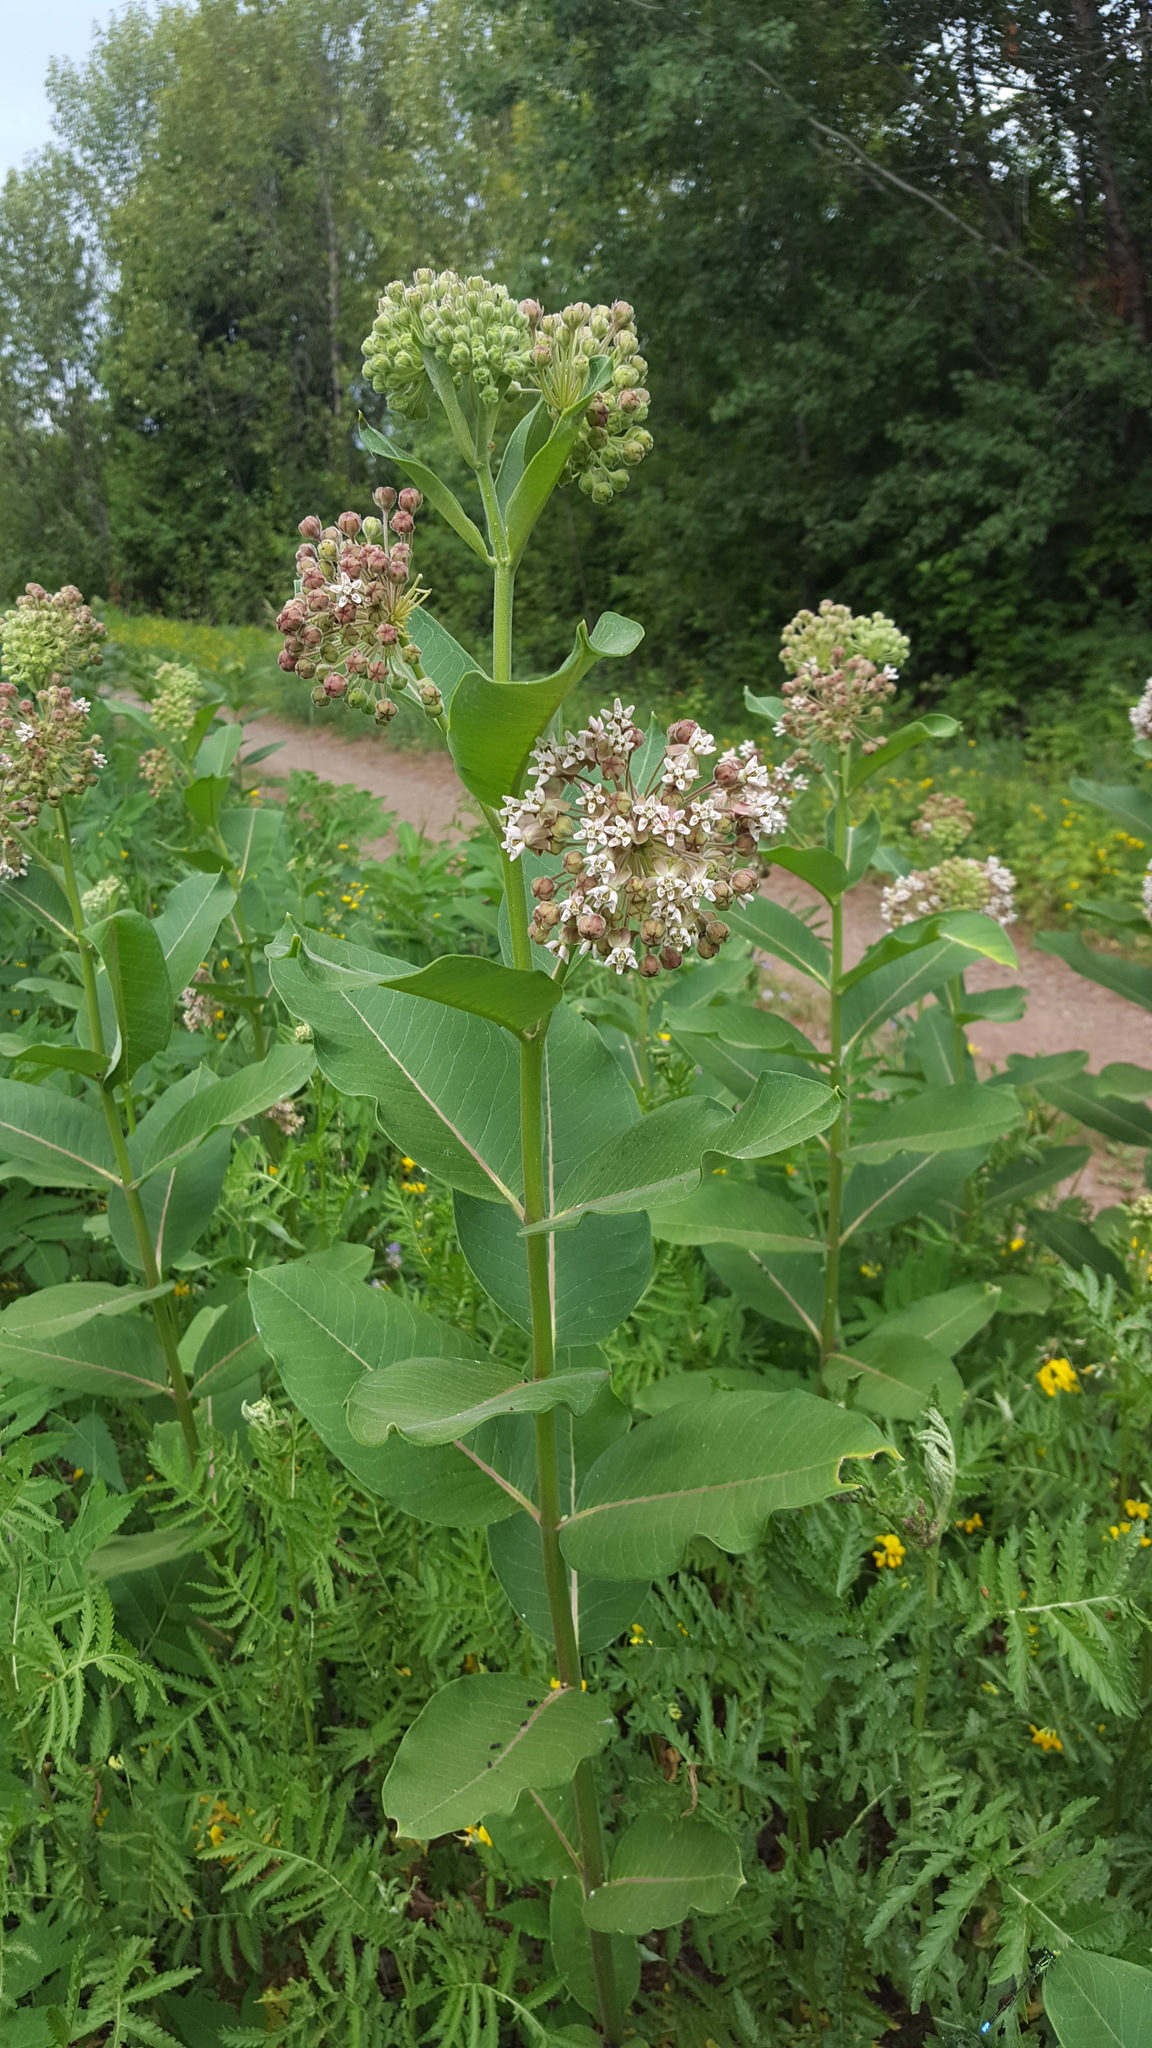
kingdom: Plantae
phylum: Tracheophyta
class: Magnoliopsida
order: Gentianales
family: Apocynaceae
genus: Asclepias
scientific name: Asclepias syriaca
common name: Common milkweed
